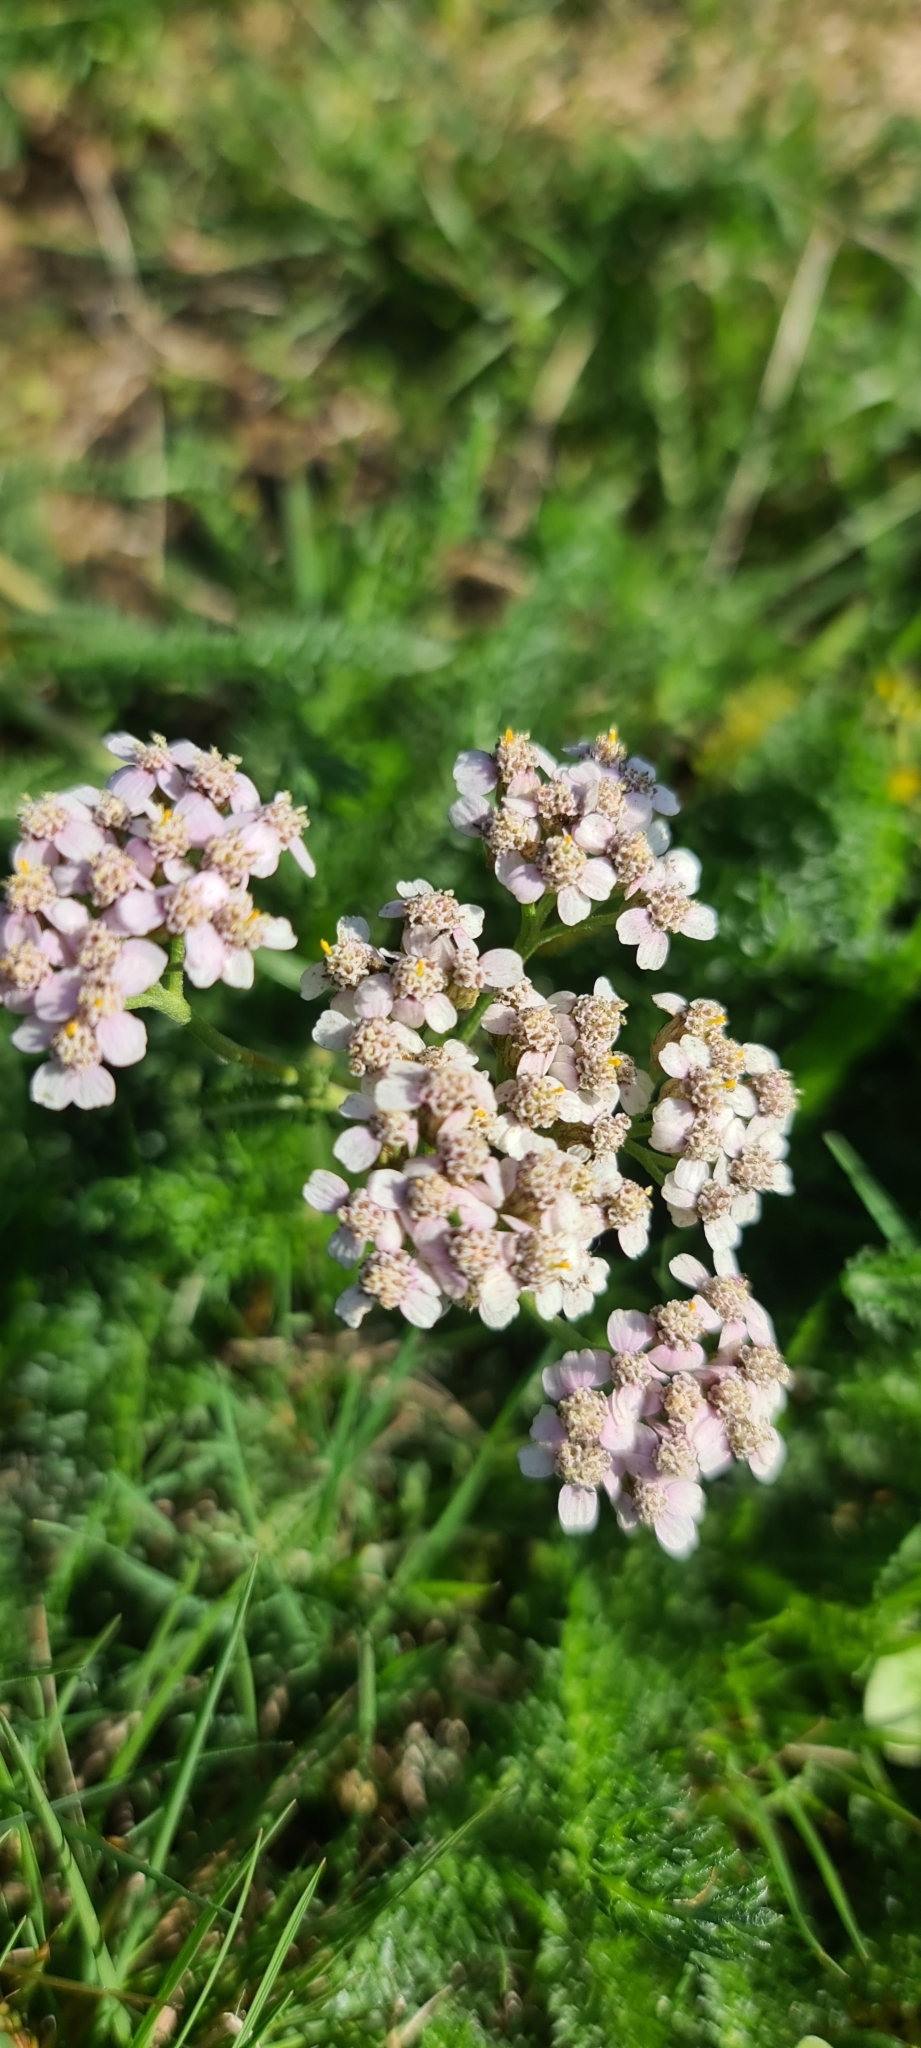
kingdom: Plantae
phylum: Tracheophyta
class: Magnoliopsida
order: Asterales
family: Asteraceae
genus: Achillea
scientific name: Achillea millefolium
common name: Yarrow
